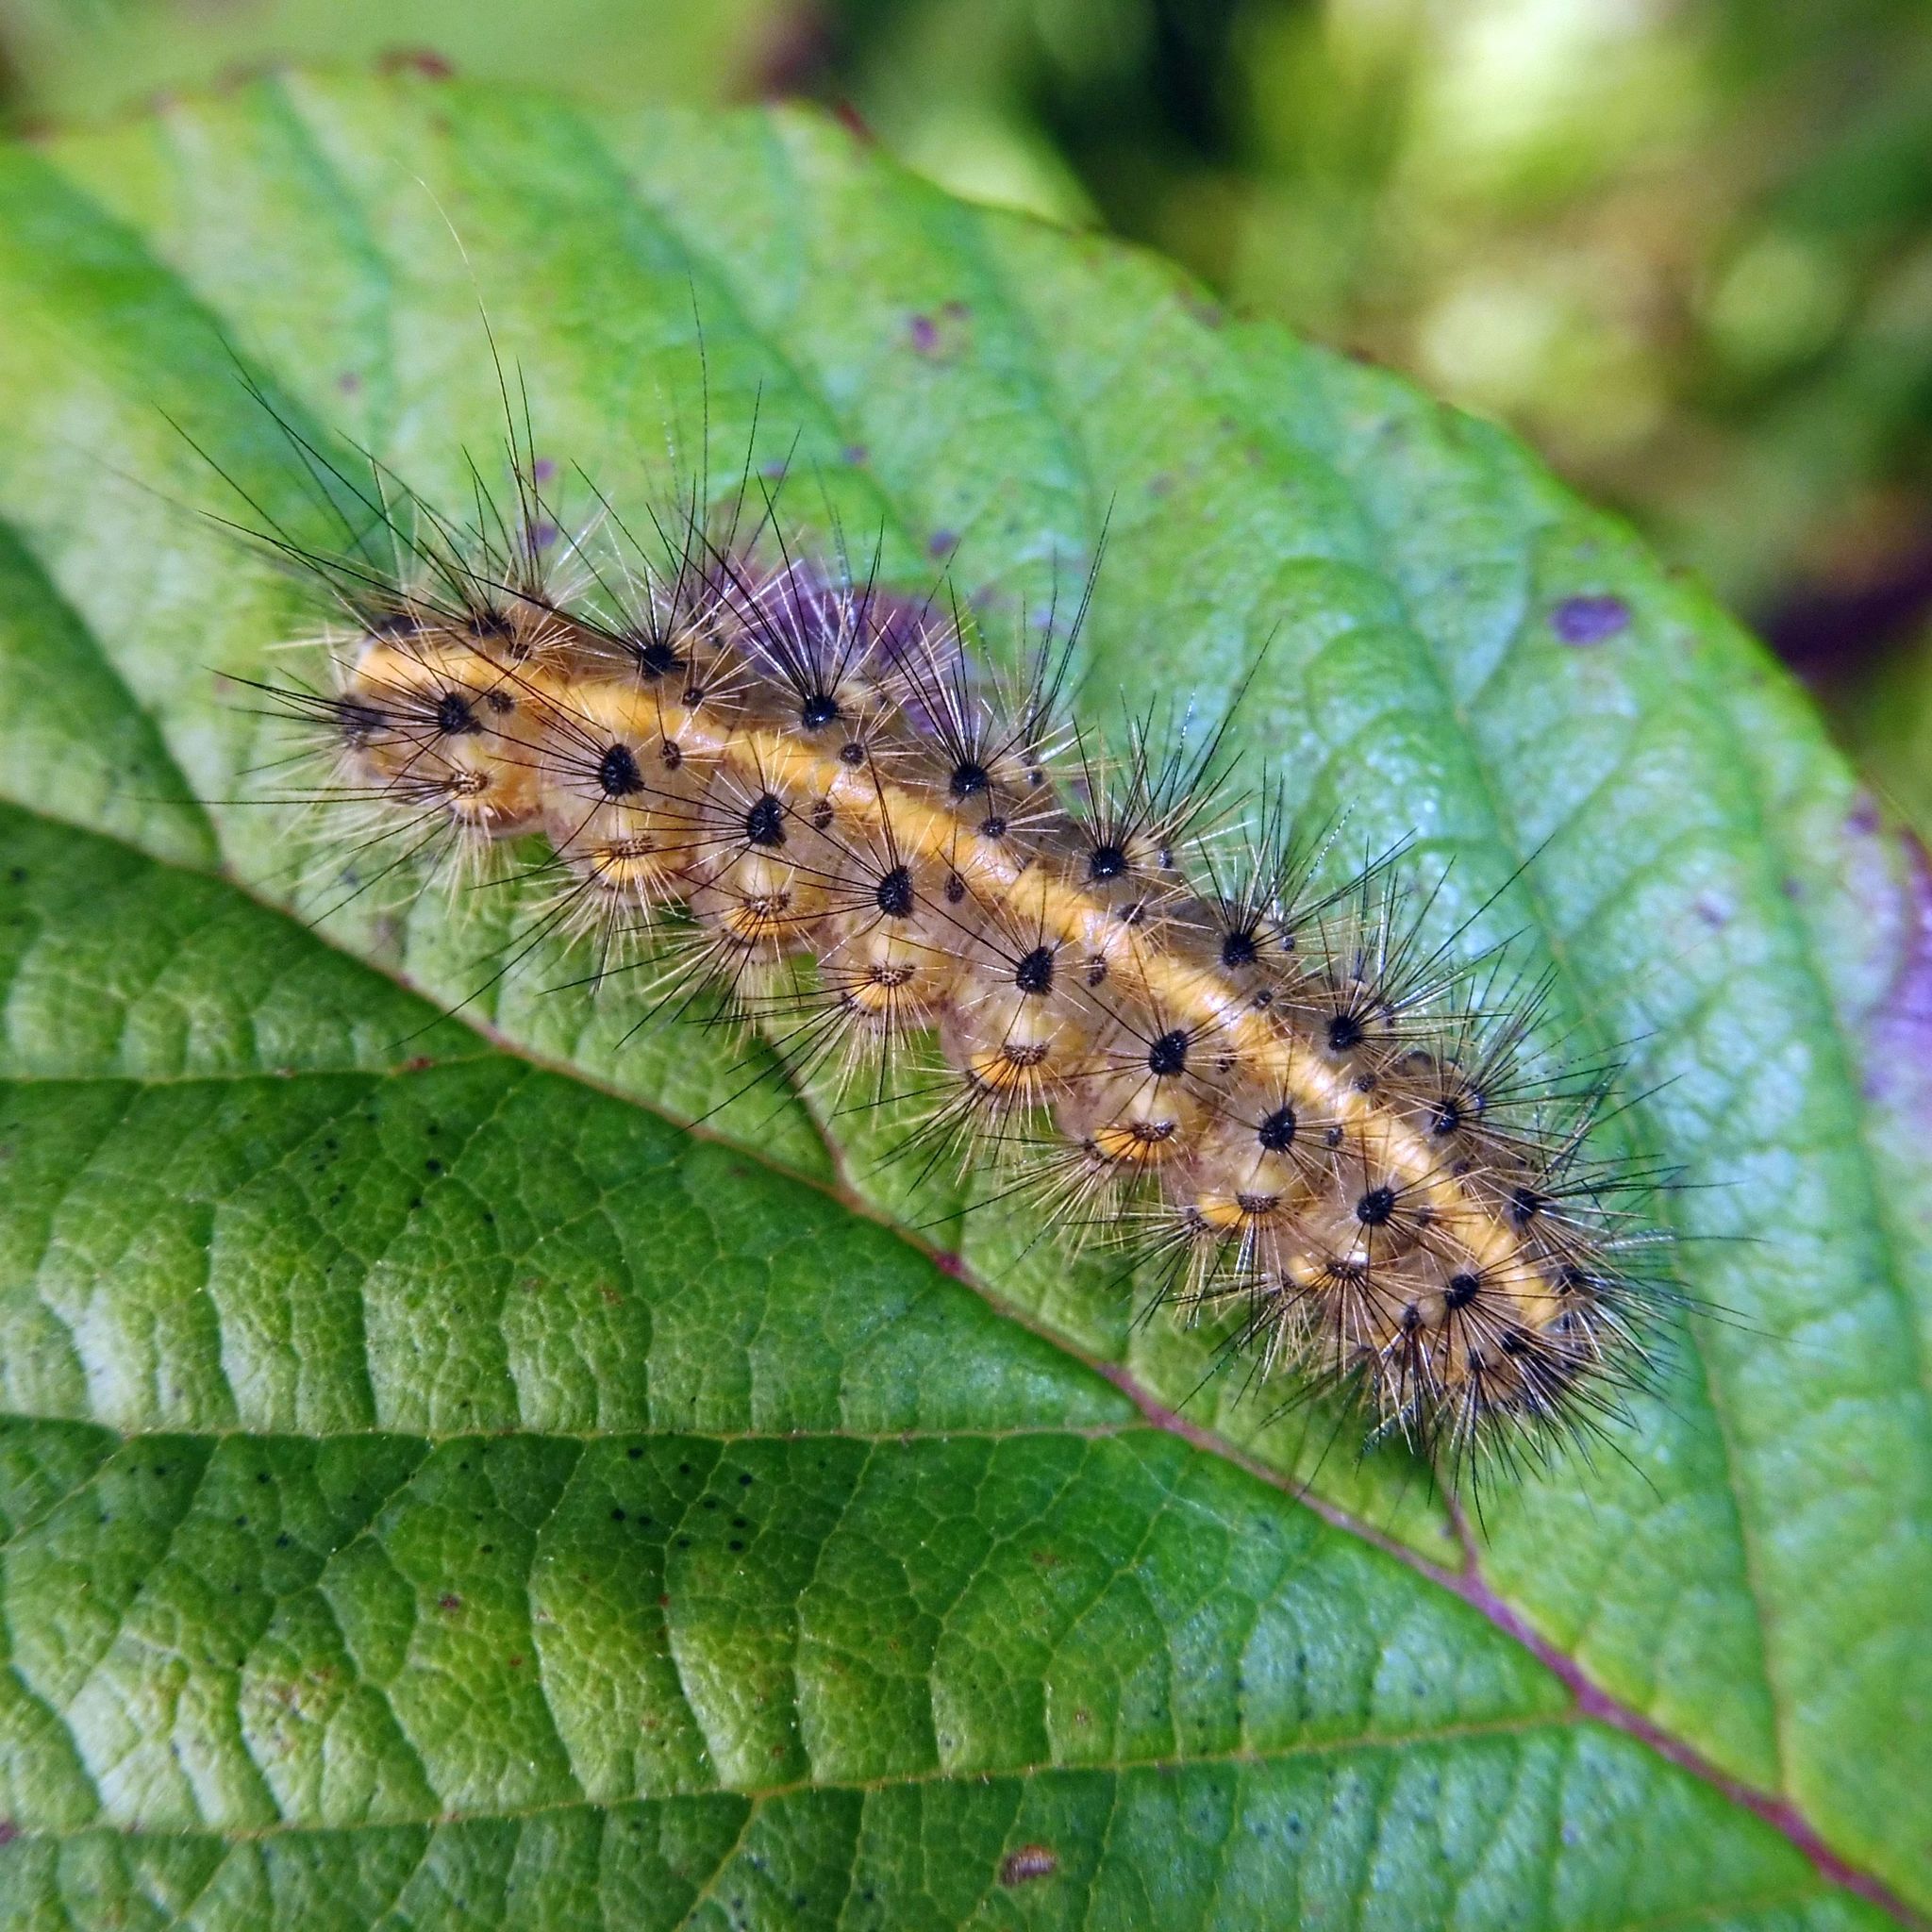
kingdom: Animalia
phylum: Arthropoda
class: Insecta
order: Lepidoptera
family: Erebidae
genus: Phragmatobia
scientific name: Phragmatobia fuliginosa
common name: Ruby tiger
